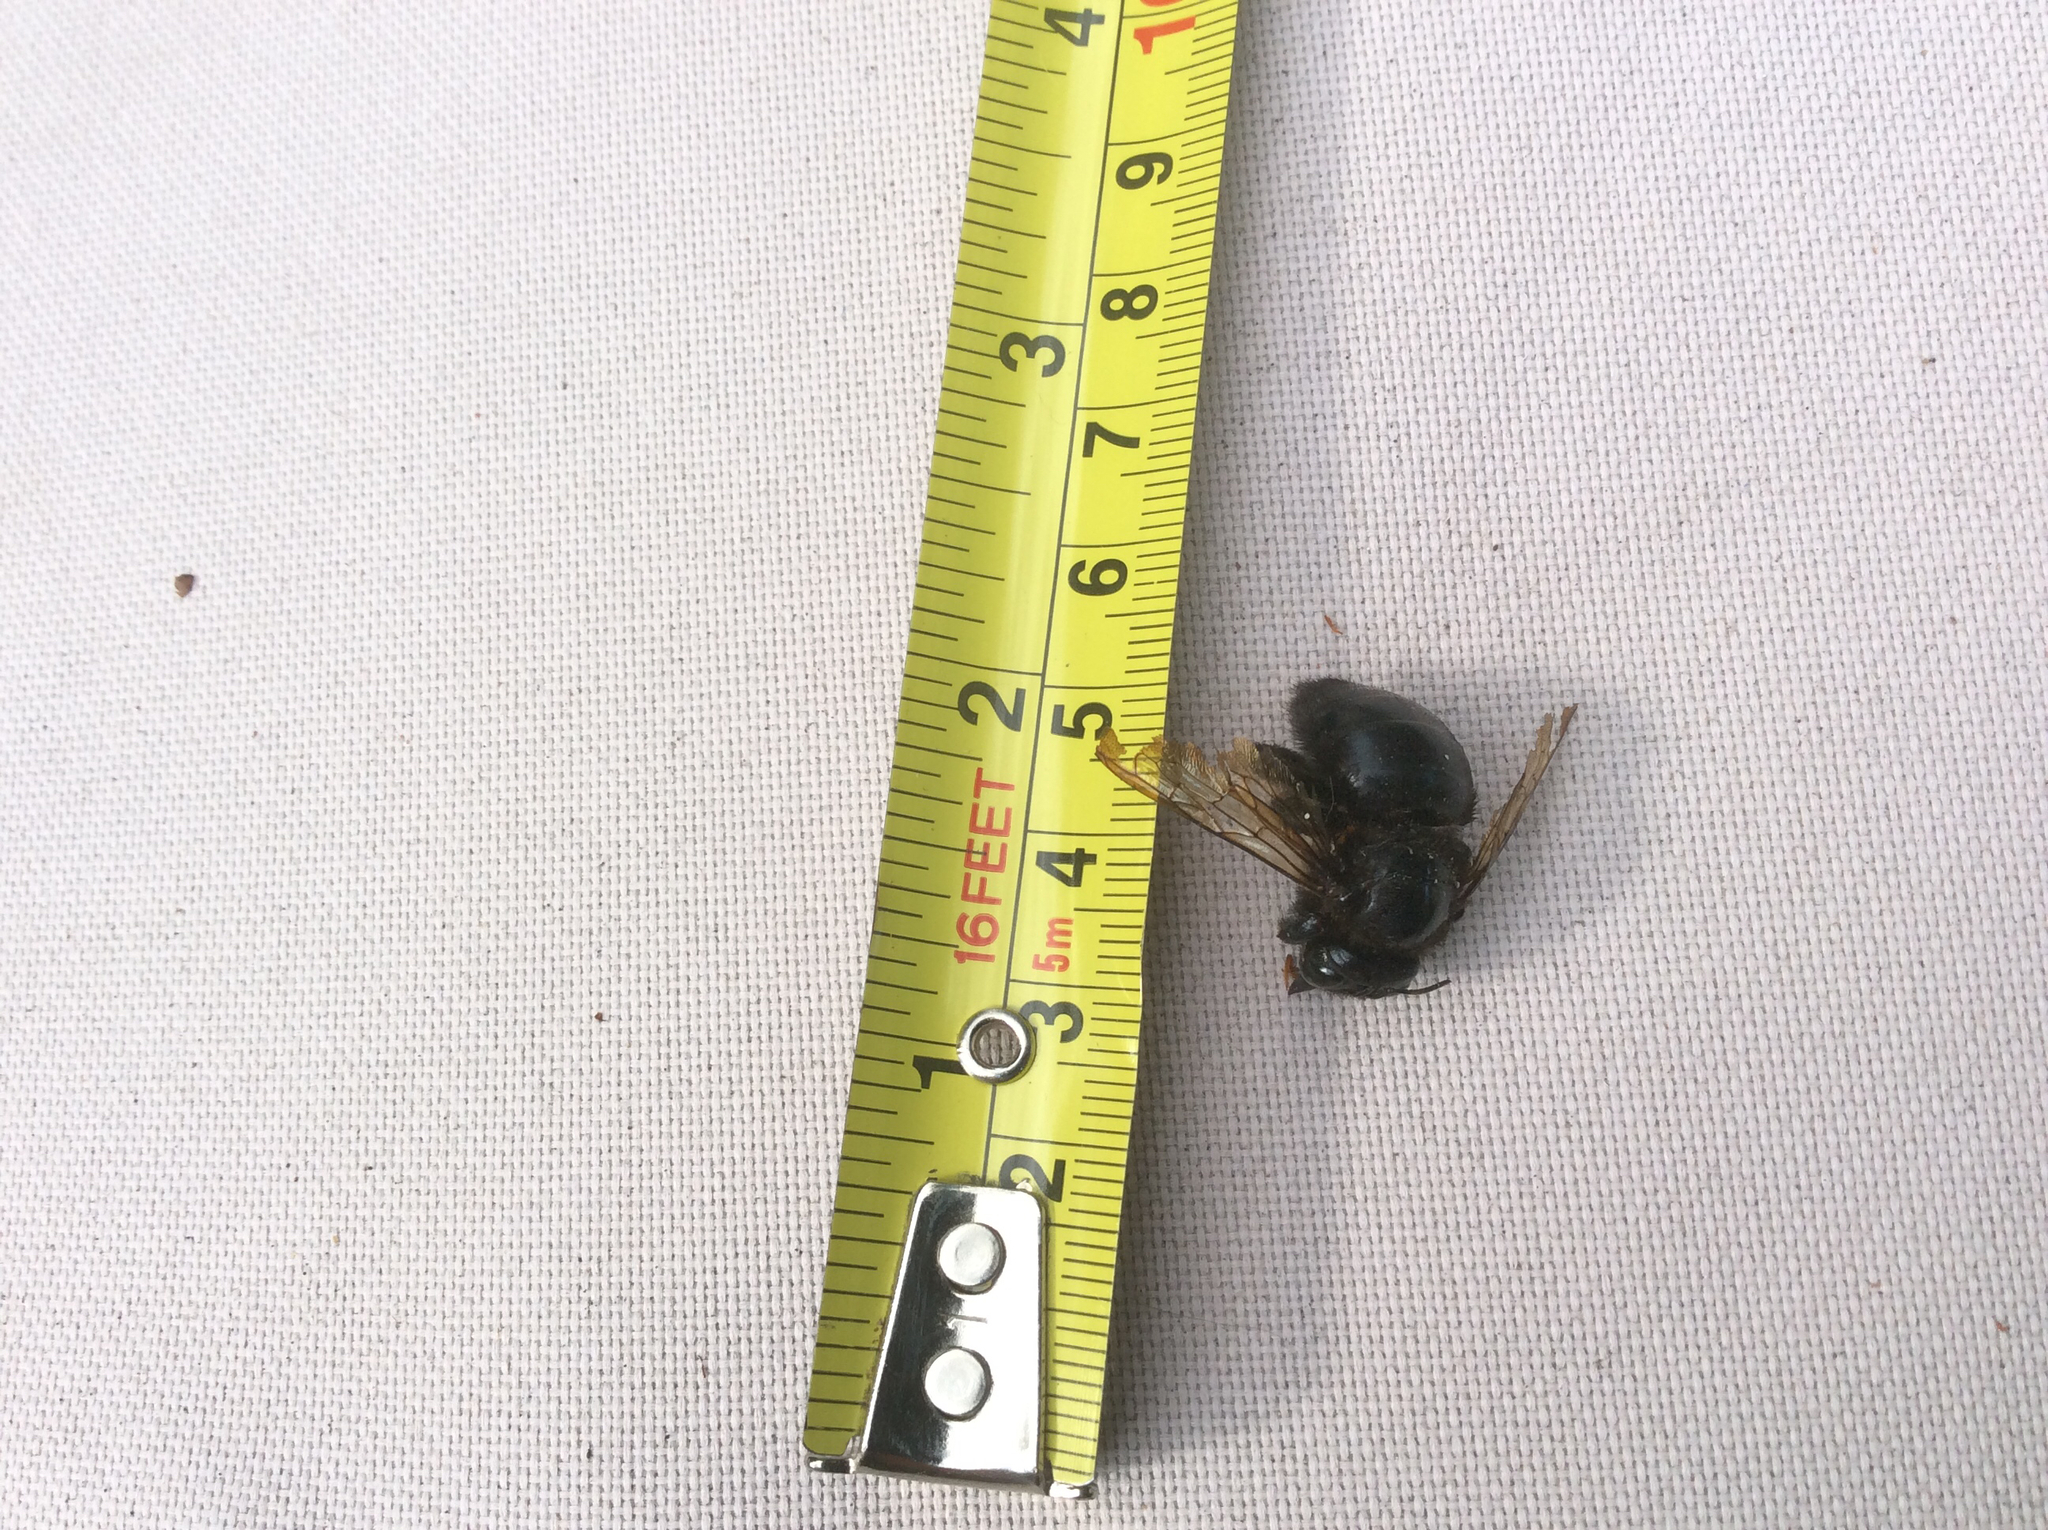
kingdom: Animalia
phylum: Arthropoda
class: Insecta
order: Hymenoptera
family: Apidae
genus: Xylocopa
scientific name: Xylocopa tabaniformis
